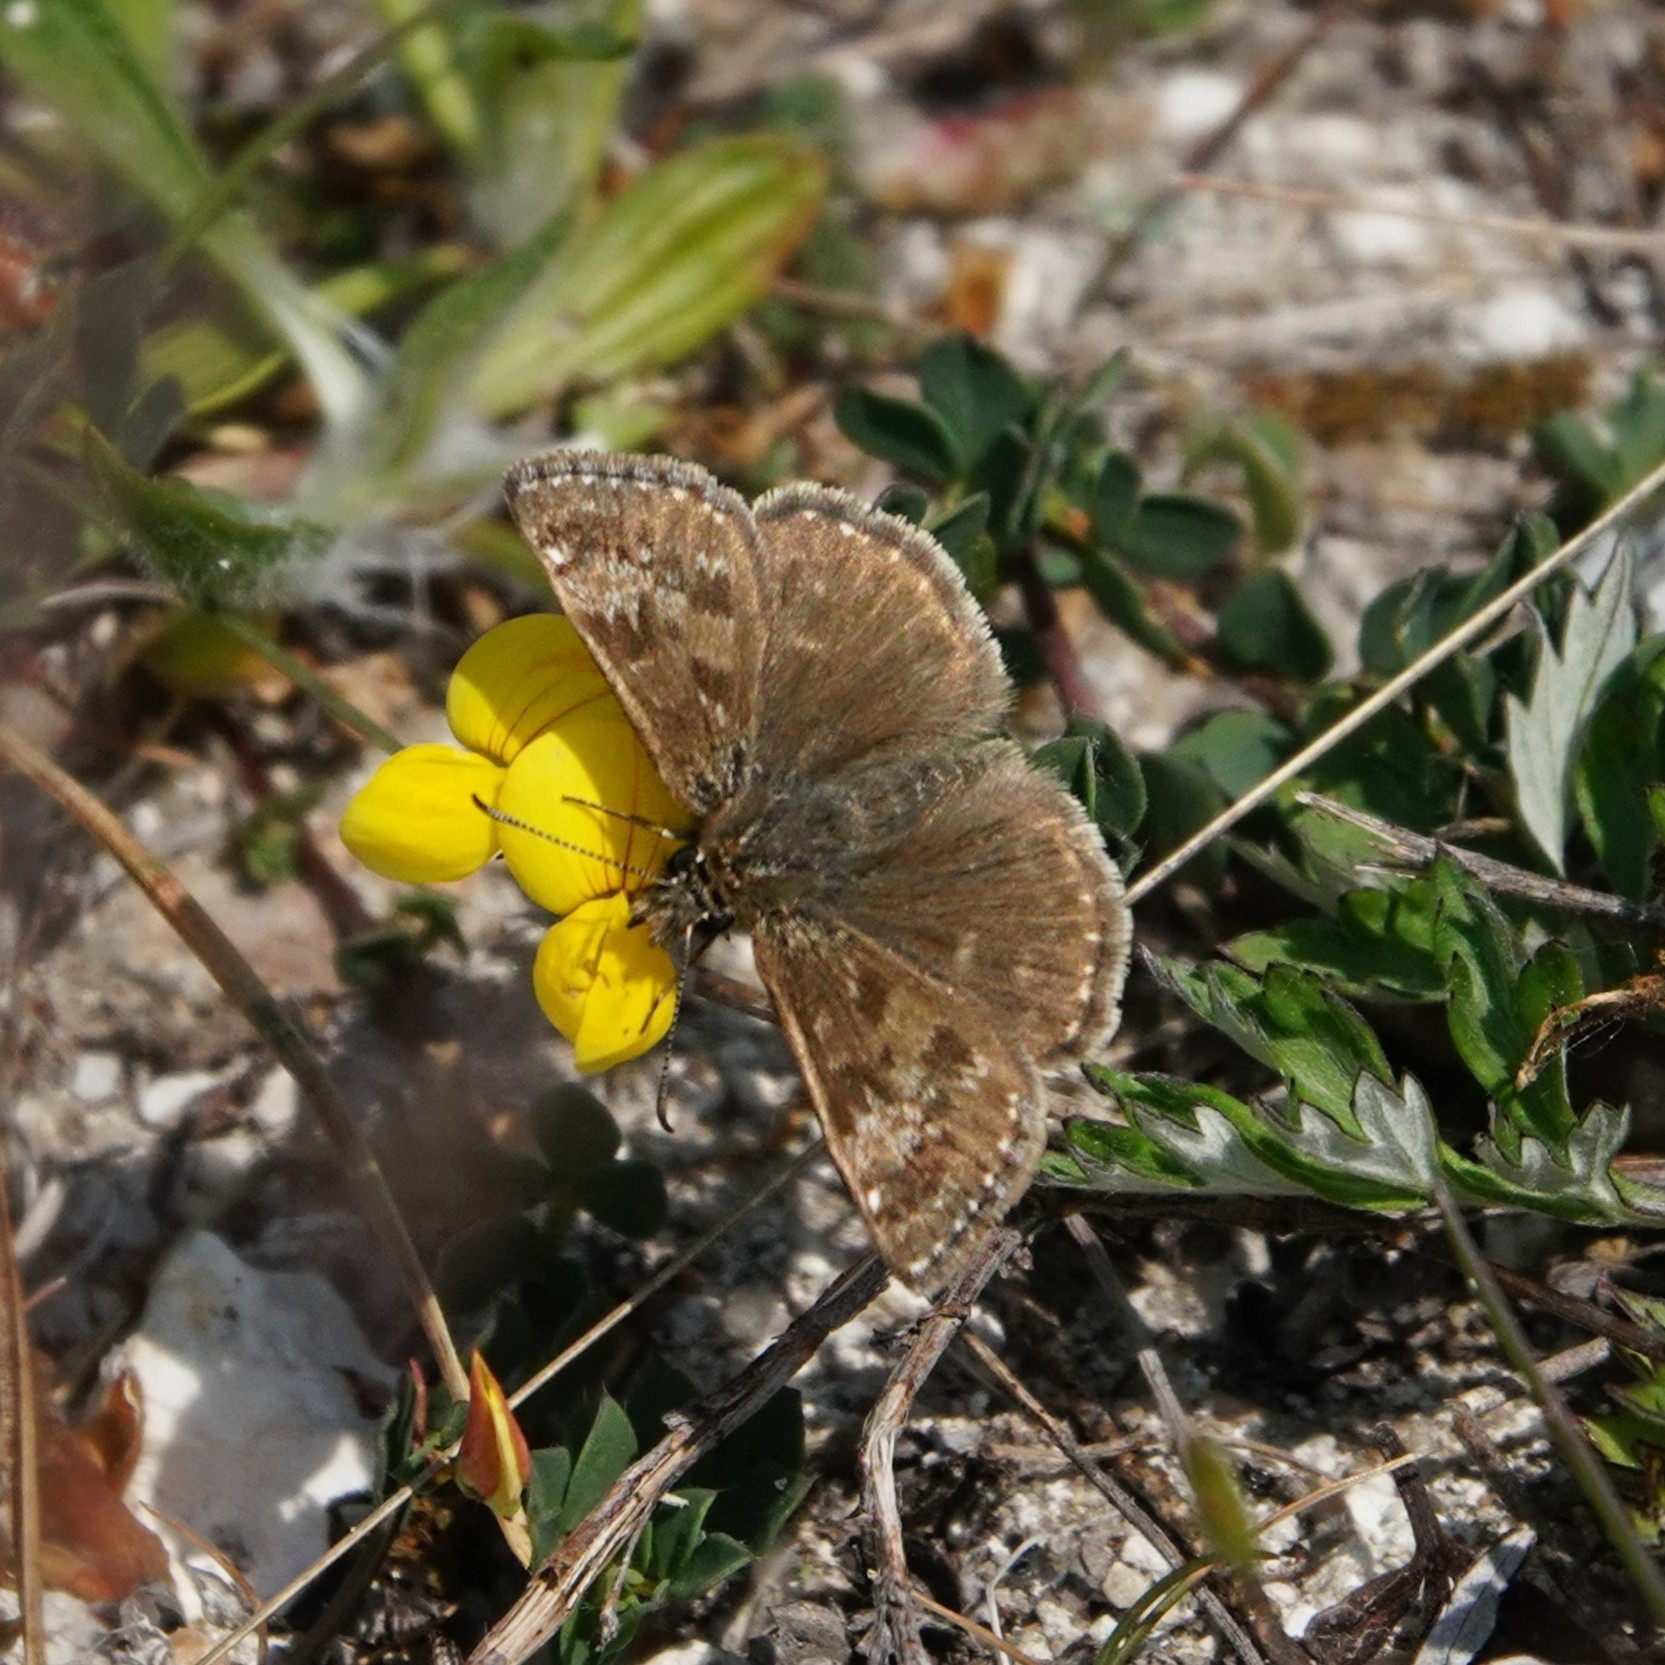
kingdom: Animalia
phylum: Arthropoda
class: Insecta
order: Lepidoptera
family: Hesperiidae
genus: Erynnis
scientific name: Erynnis tages
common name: Dingy skipper
